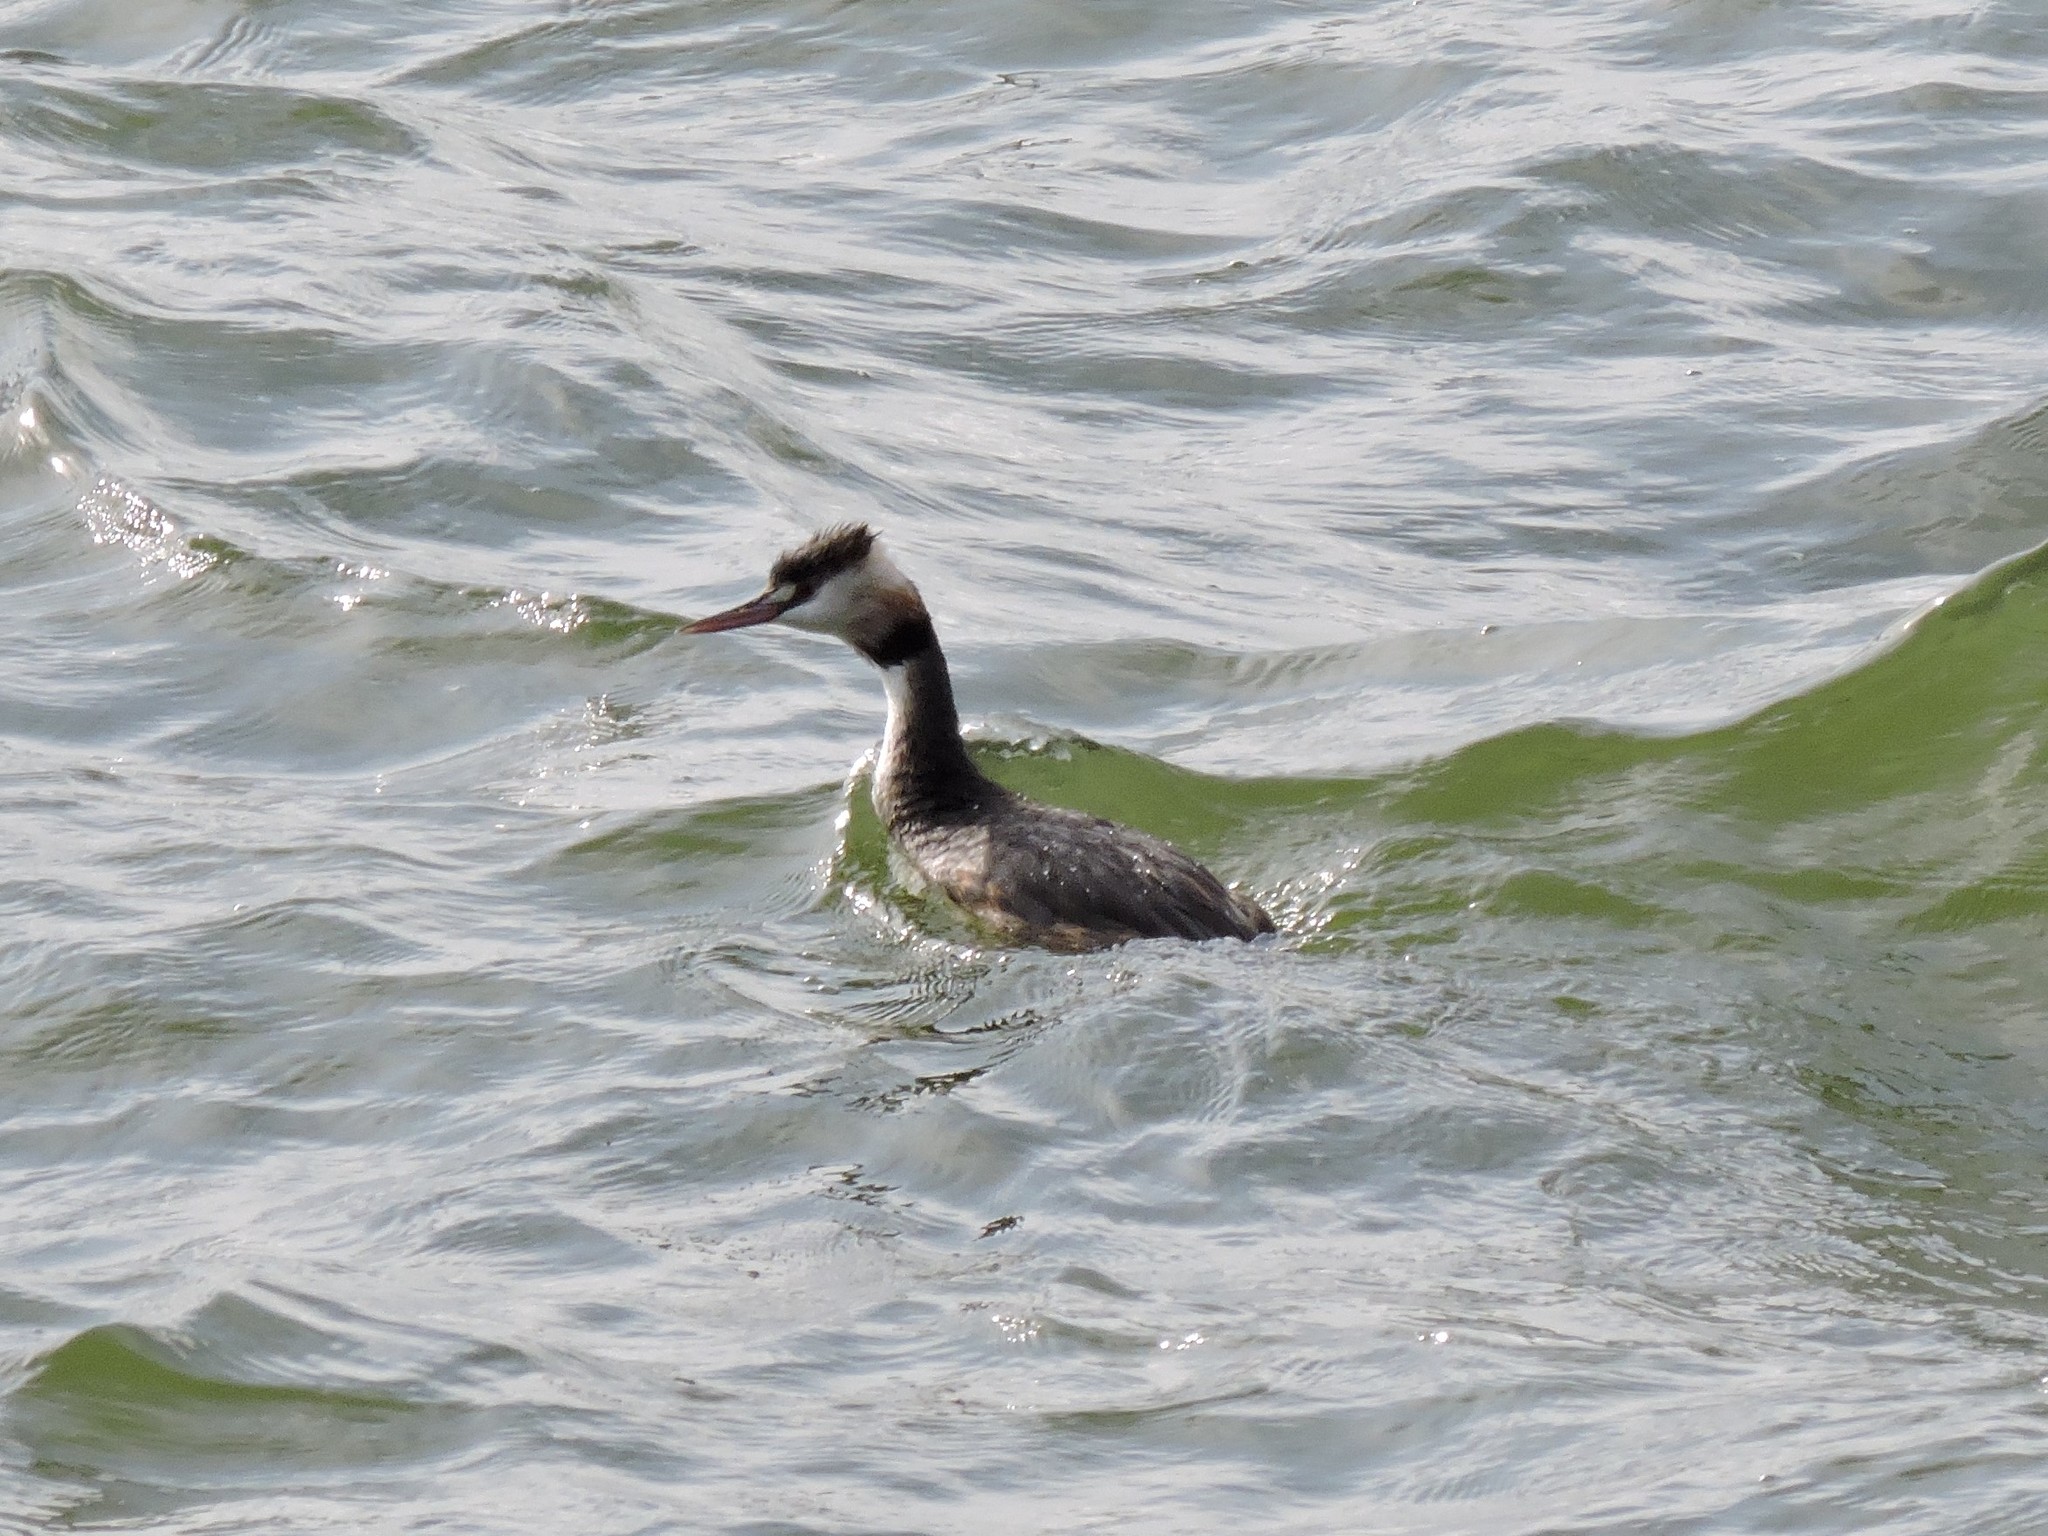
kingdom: Animalia
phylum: Chordata
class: Aves
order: Podicipediformes
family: Podicipedidae
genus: Podiceps
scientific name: Podiceps cristatus
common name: Great crested grebe
